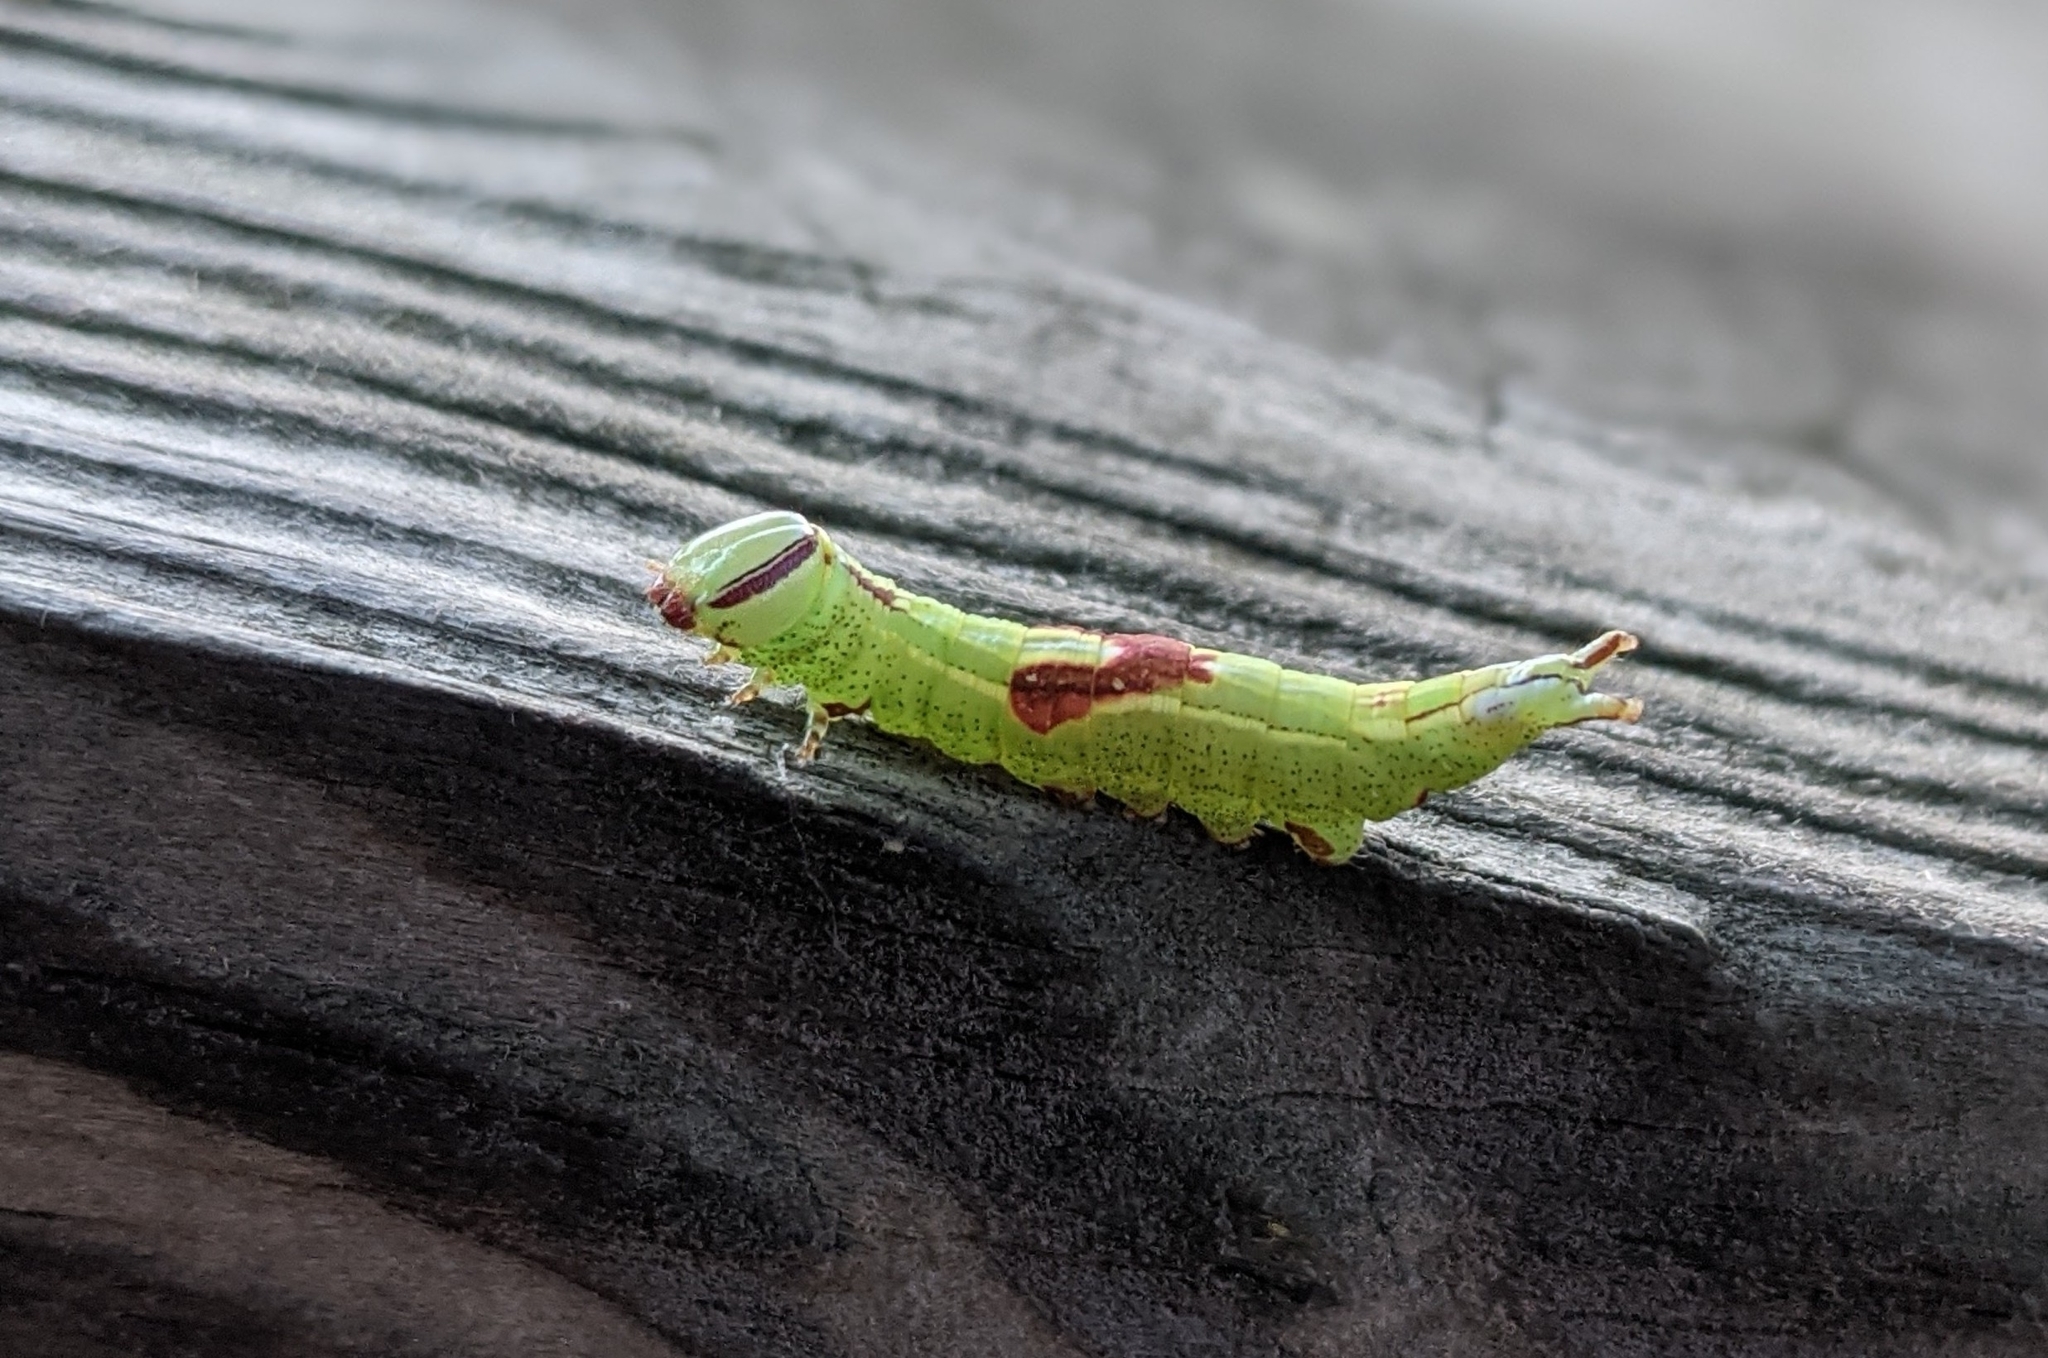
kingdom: Animalia
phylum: Arthropoda
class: Insecta
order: Lepidoptera
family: Notodontidae
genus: Disphragis
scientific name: Disphragis Cecrita guttivitta
